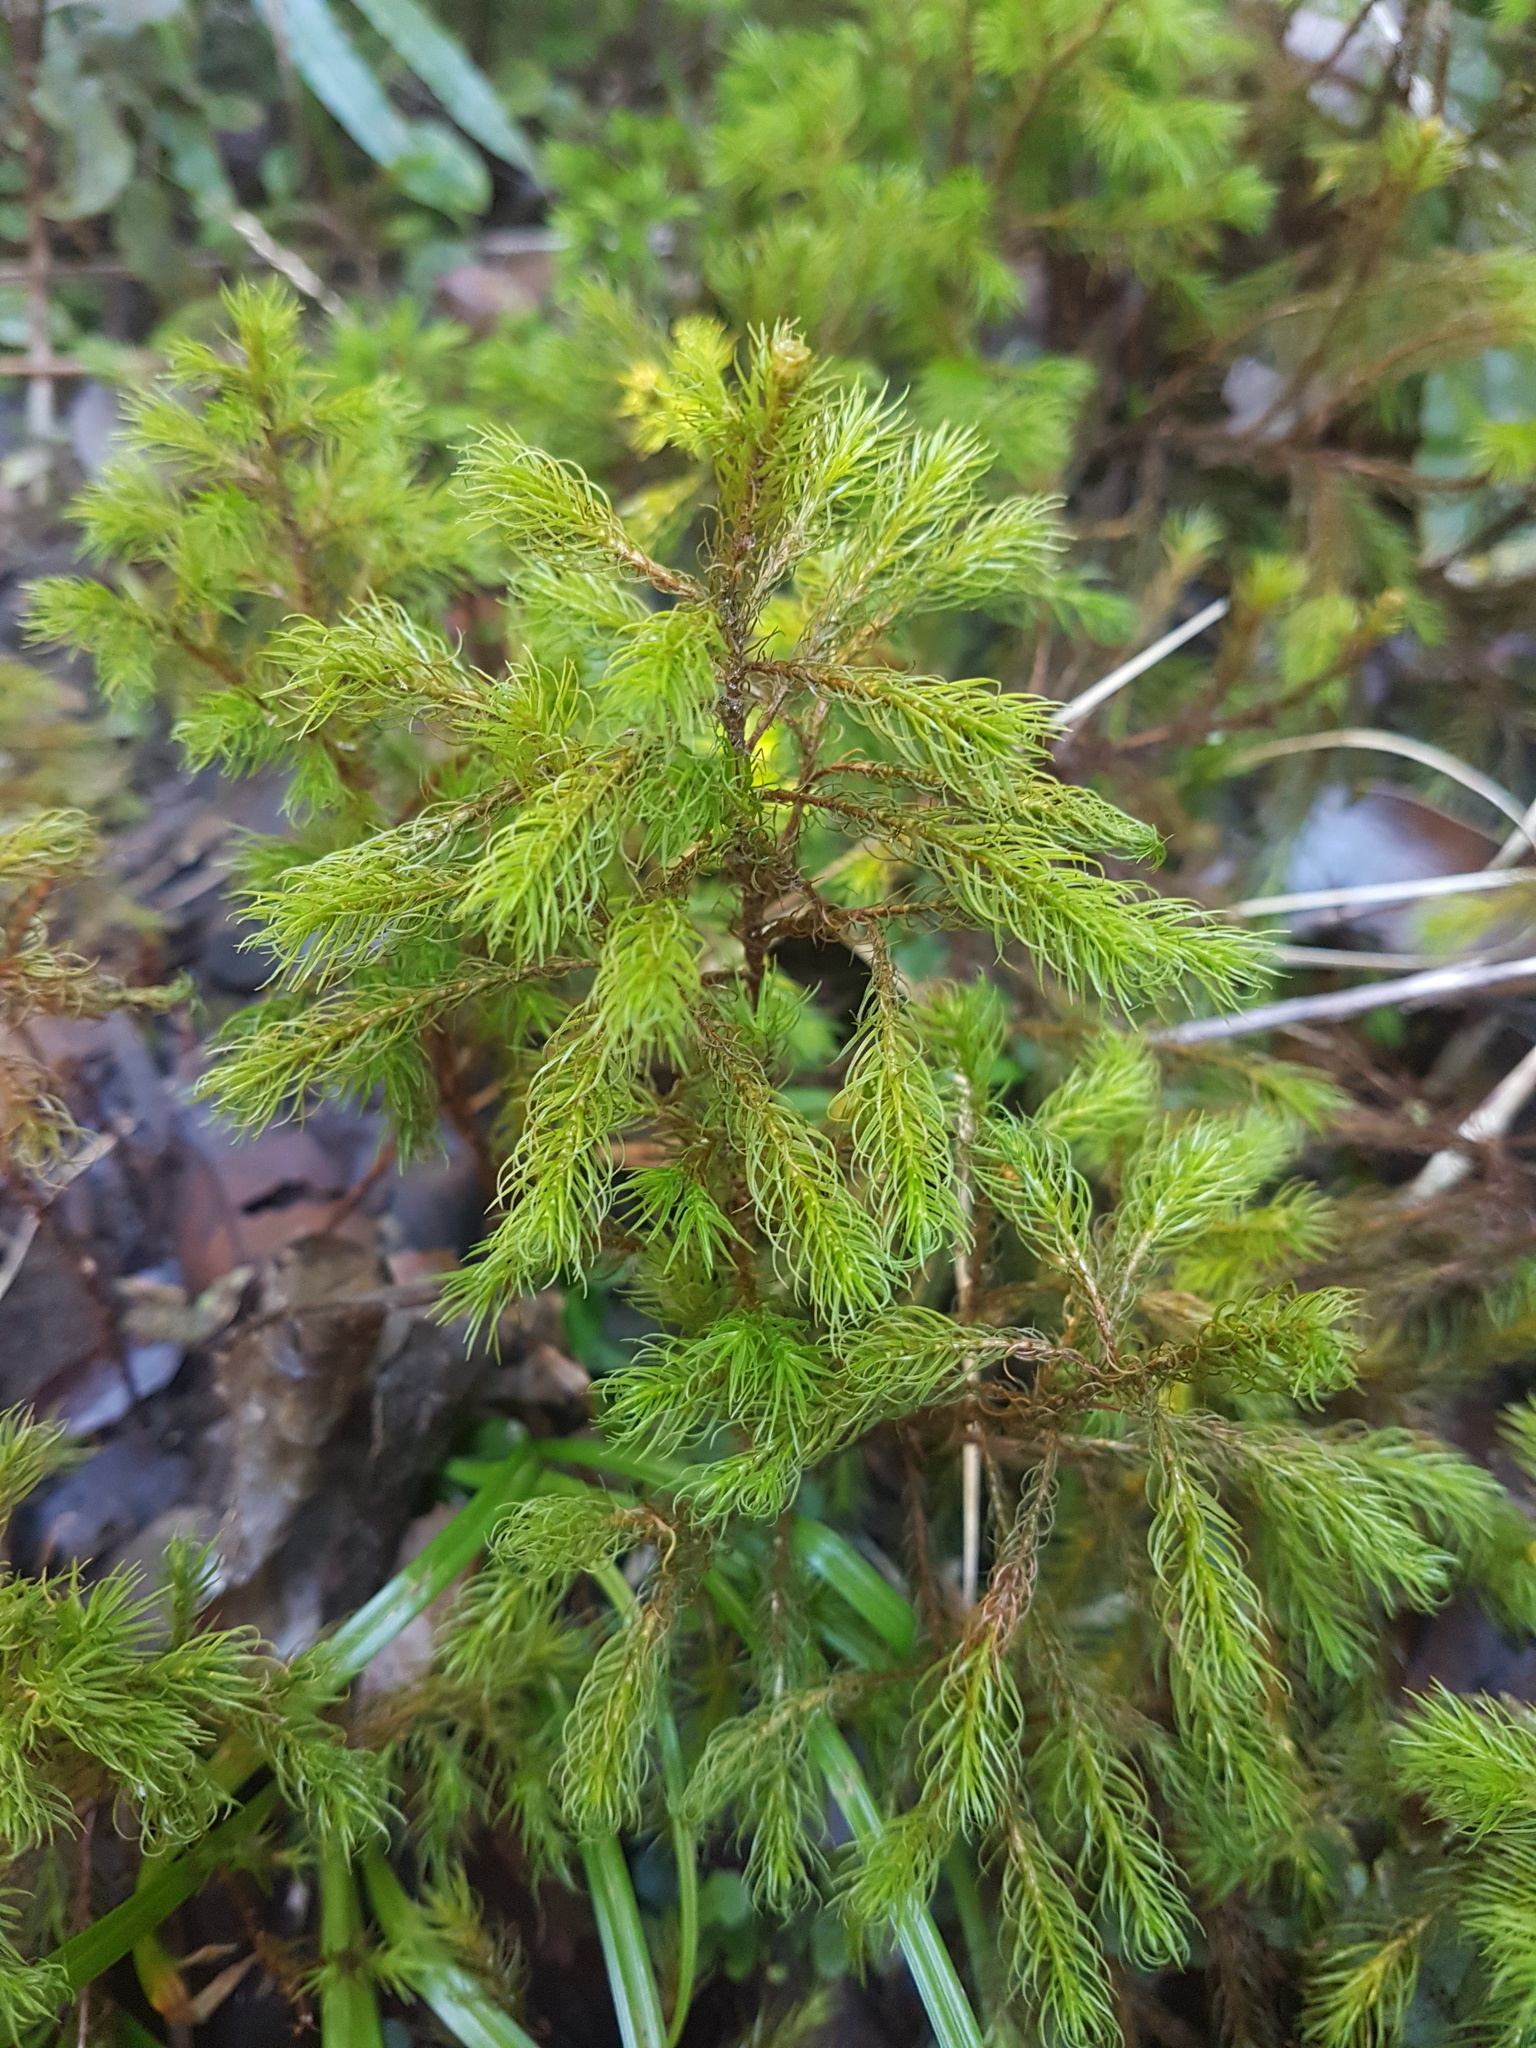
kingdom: Plantae
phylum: Bryophyta
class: Polytrichopsida
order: Polytrichales
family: Polytrichaceae
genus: Dendroligotrichum
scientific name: Dendroligotrichum tongariroense
